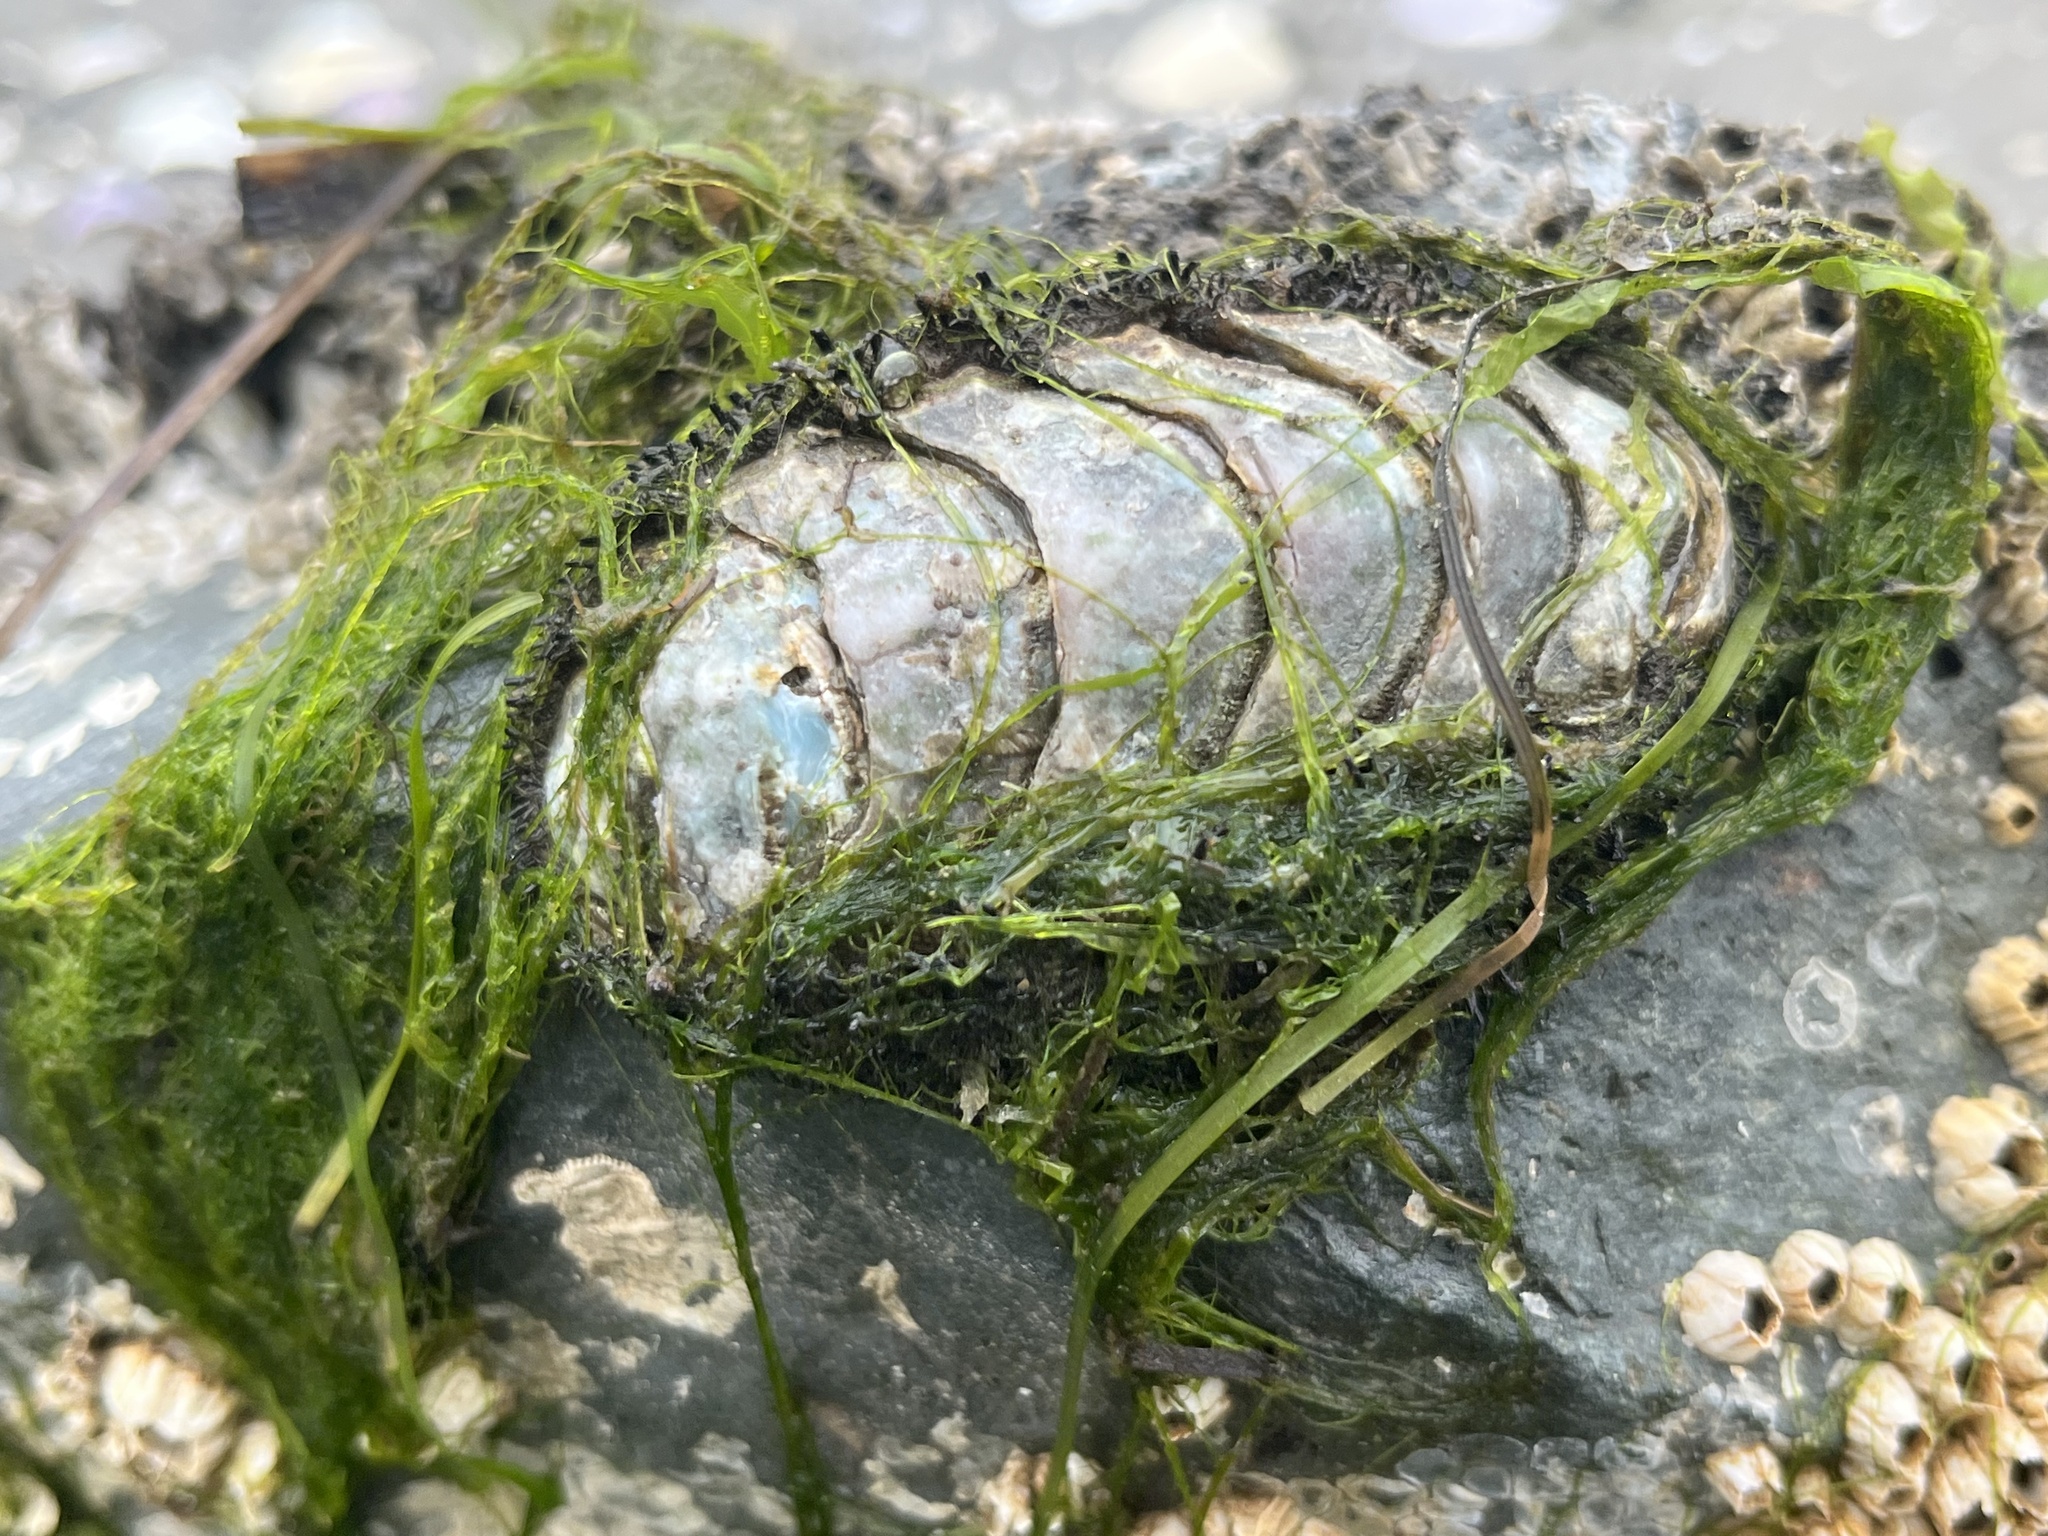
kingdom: Animalia
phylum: Mollusca
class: Polyplacophora
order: Chitonida
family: Mopaliidae
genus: Mopalia
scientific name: Mopalia muscosa
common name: Mossy chiton
